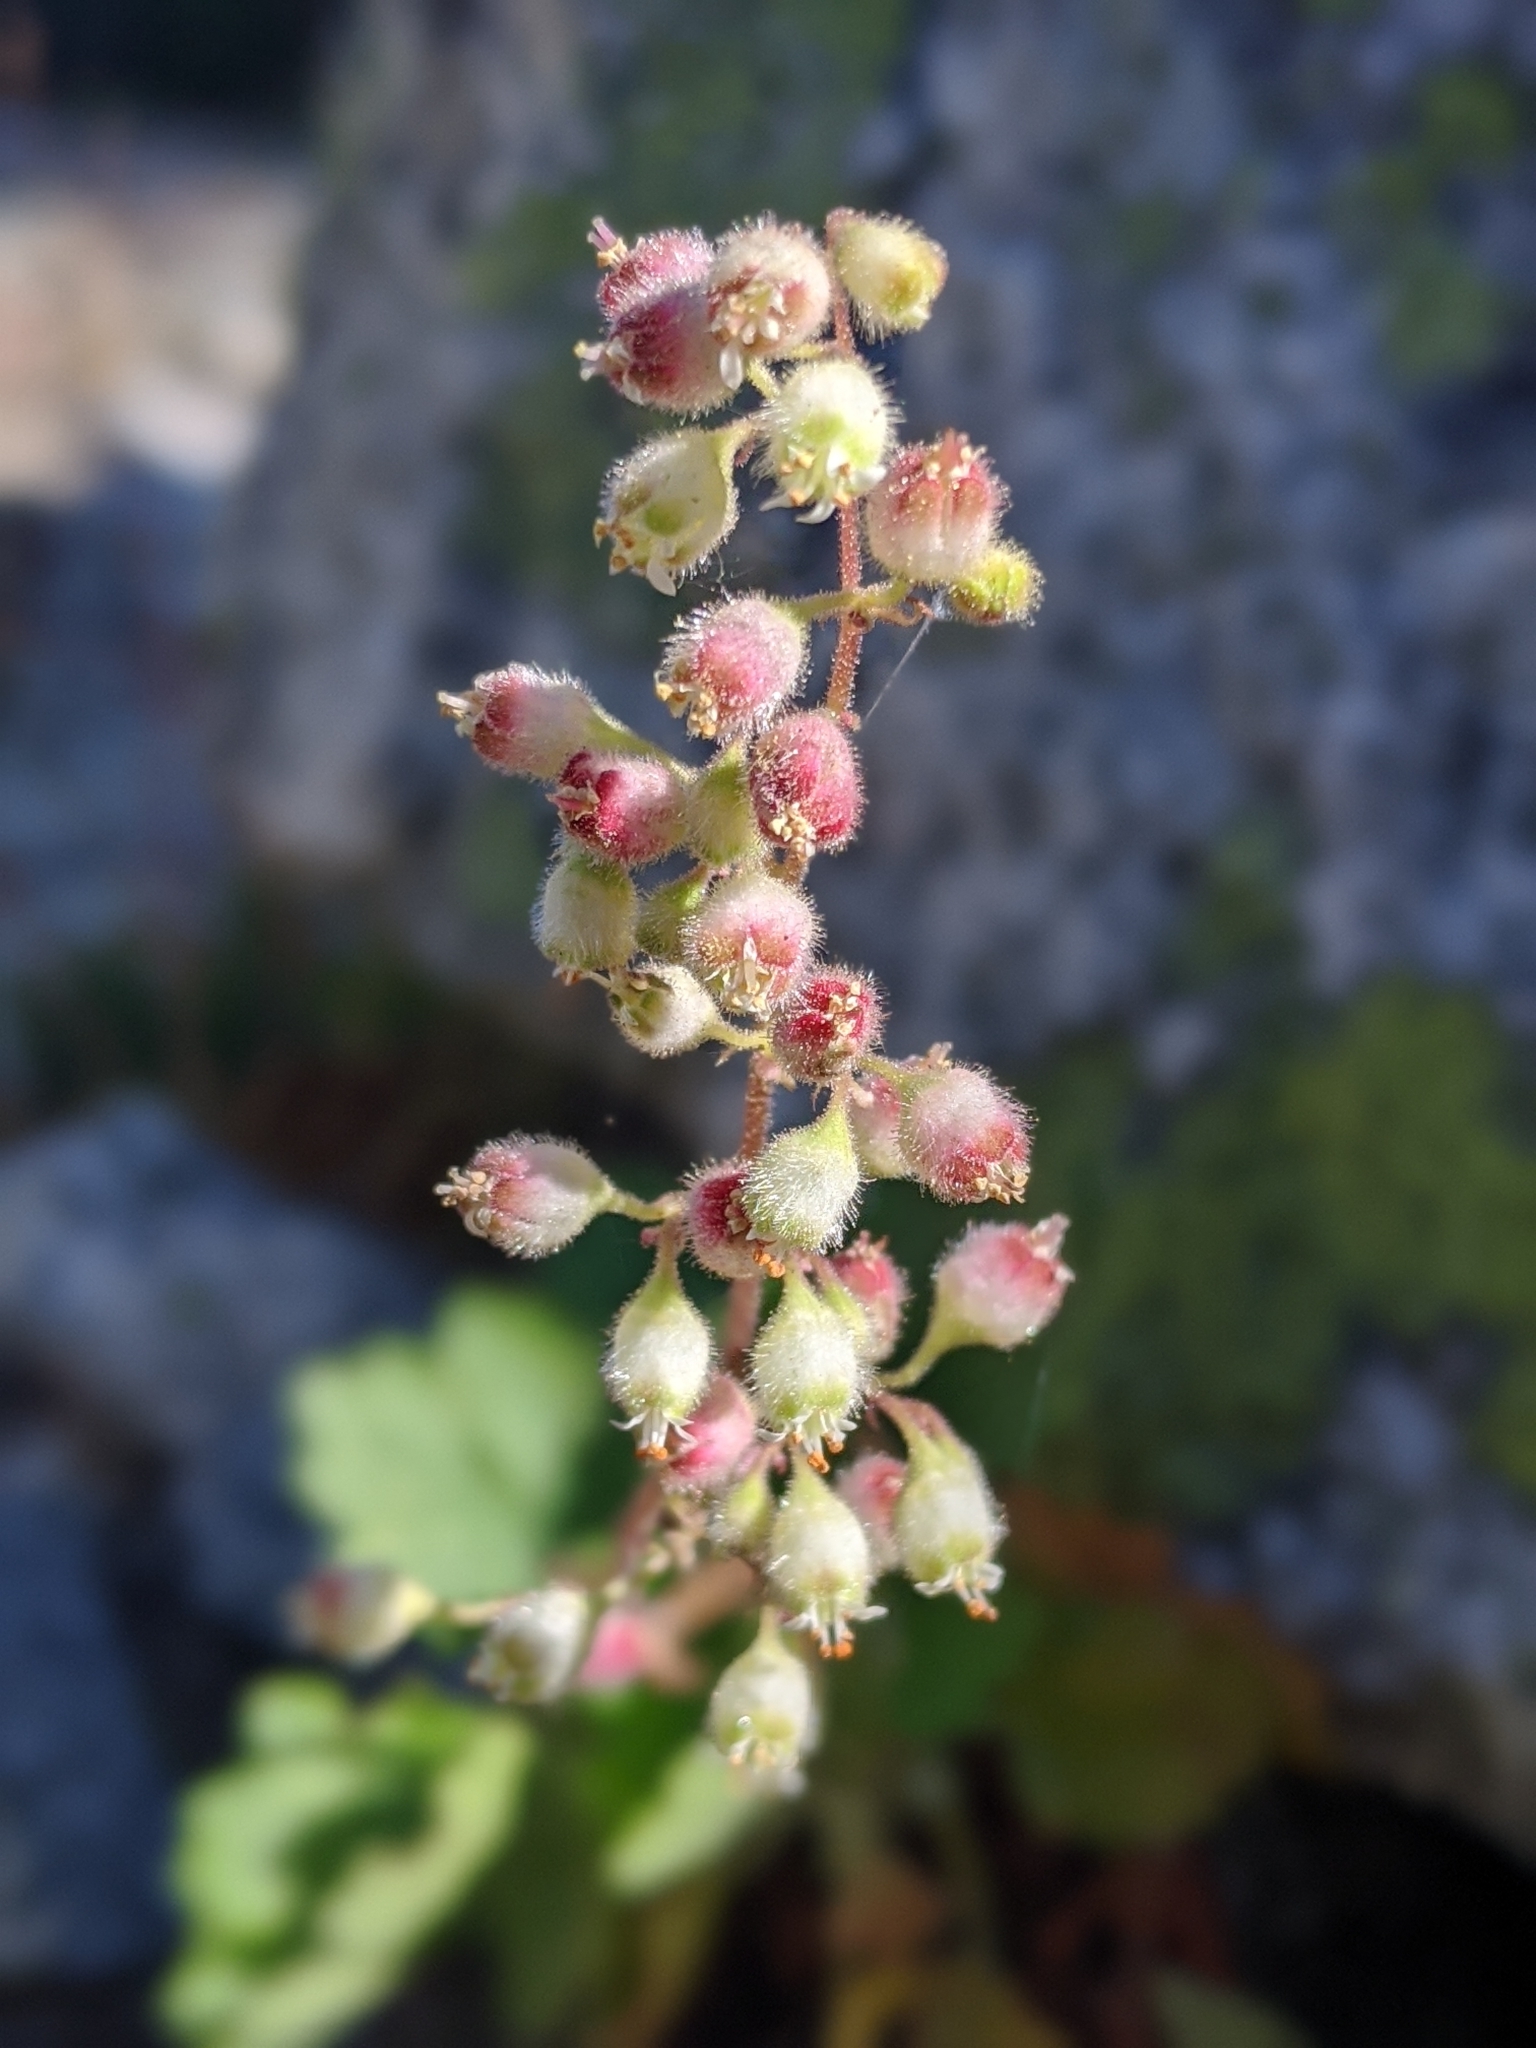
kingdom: Plantae
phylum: Tracheophyta
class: Magnoliopsida
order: Saxifragales
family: Saxifragaceae
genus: Heuchera
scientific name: Heuchera merriamii
